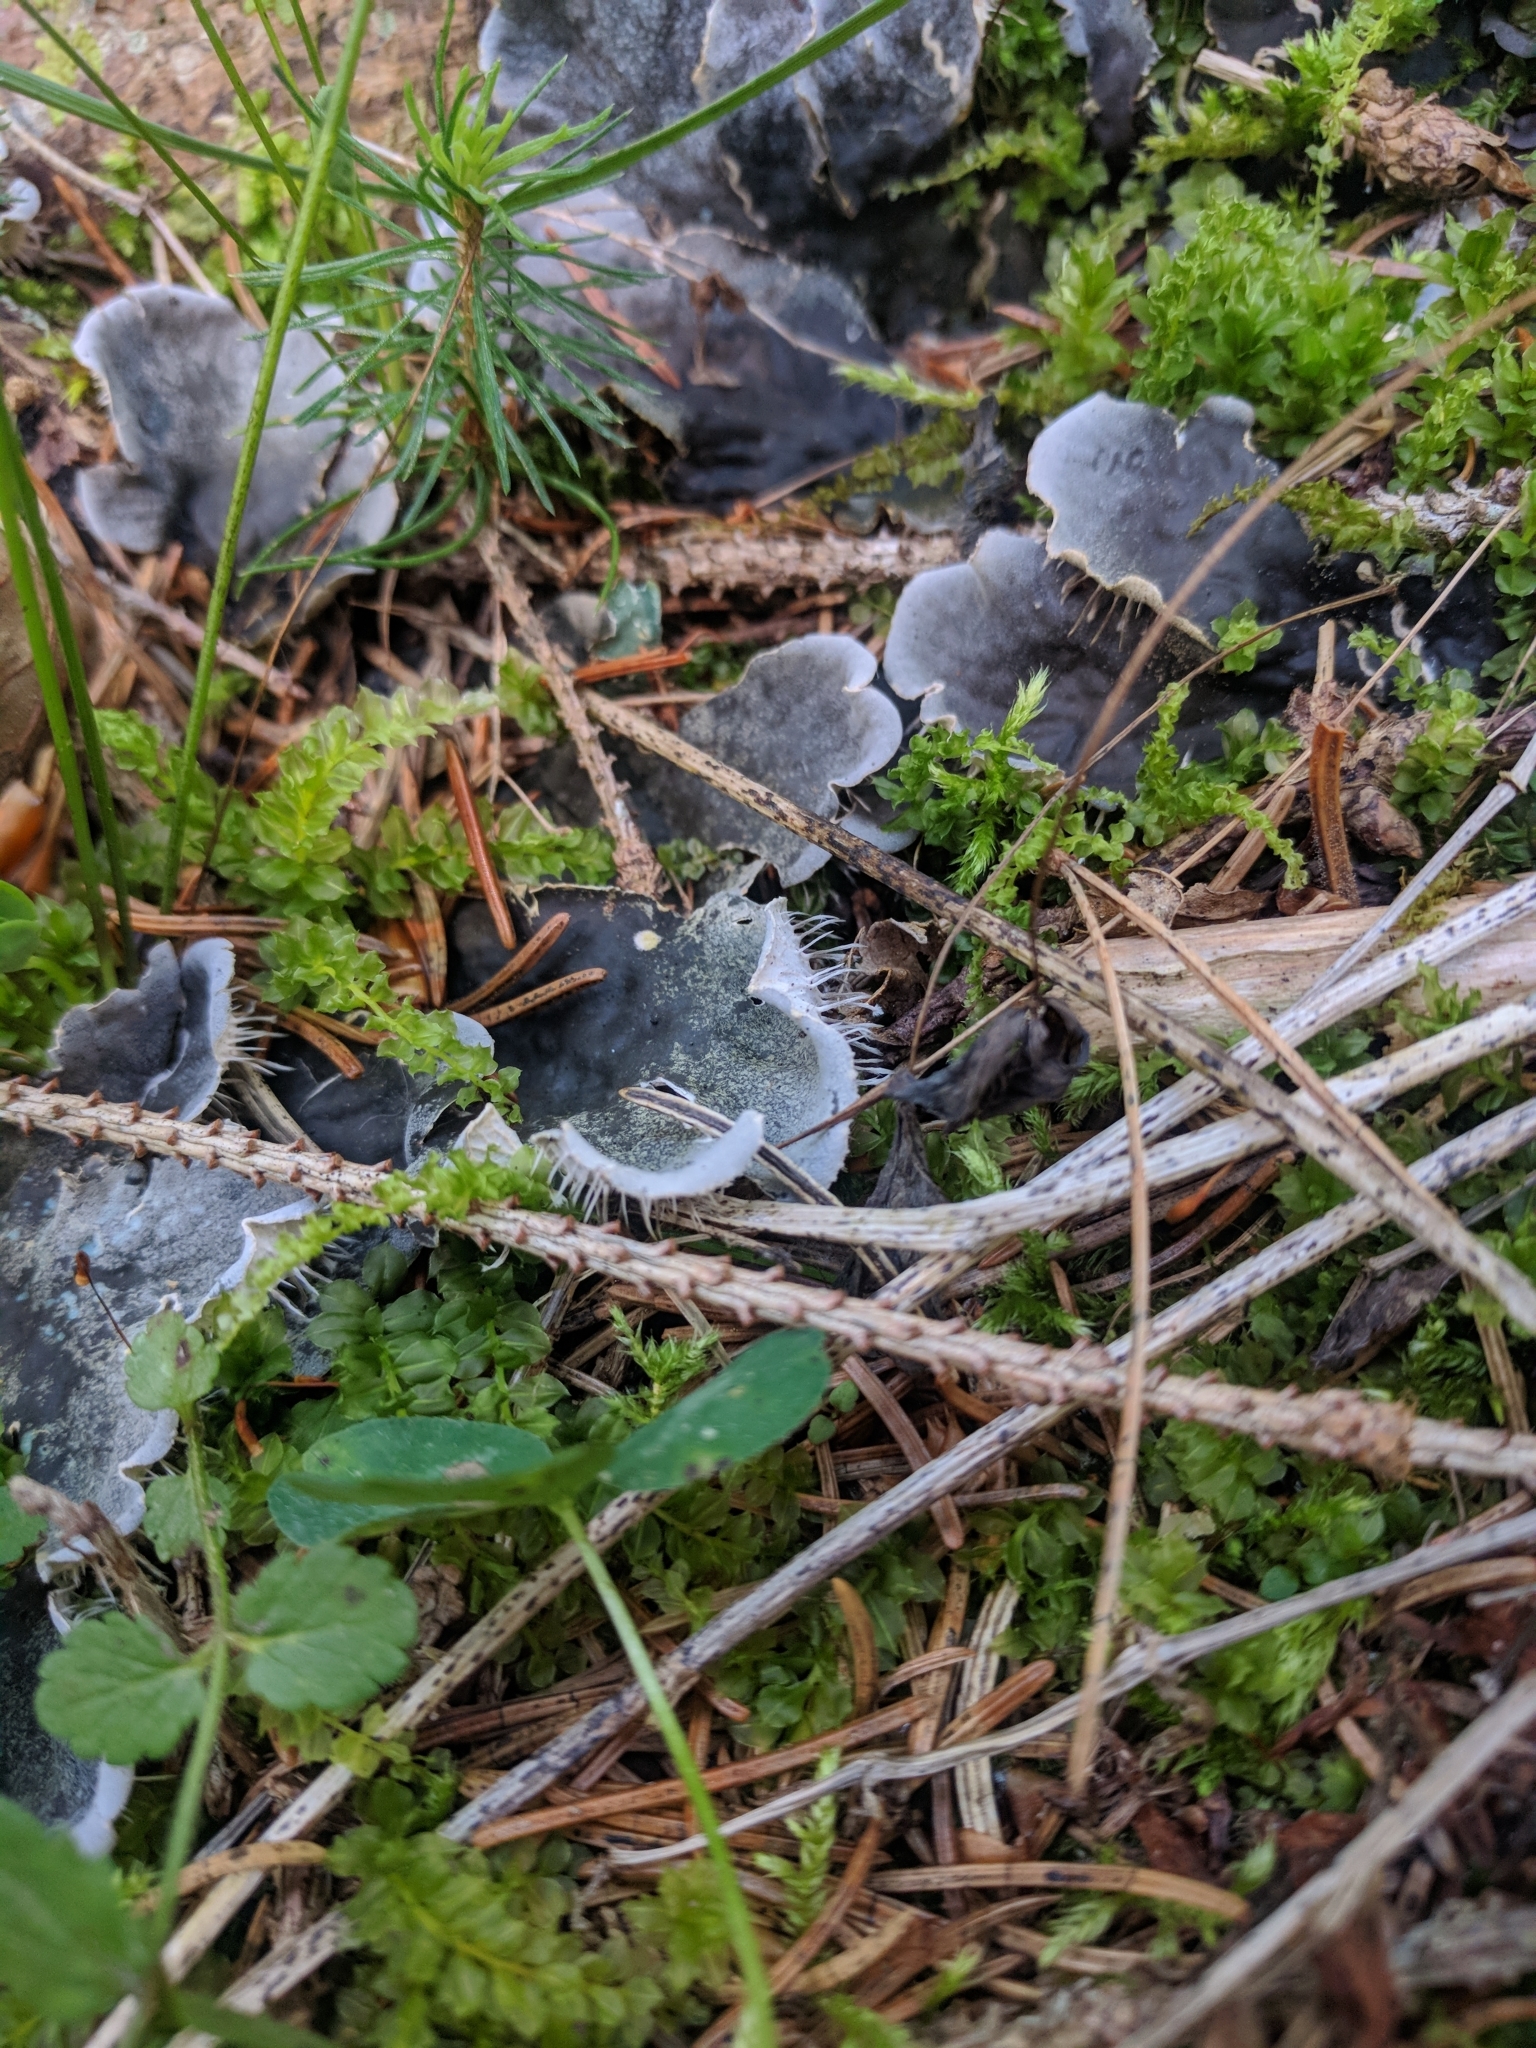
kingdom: Fungi
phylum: Ascomycota
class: Lecanoromycetes
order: Peltigerales
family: Peltigeraceae
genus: Peltigera
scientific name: Peltigera
